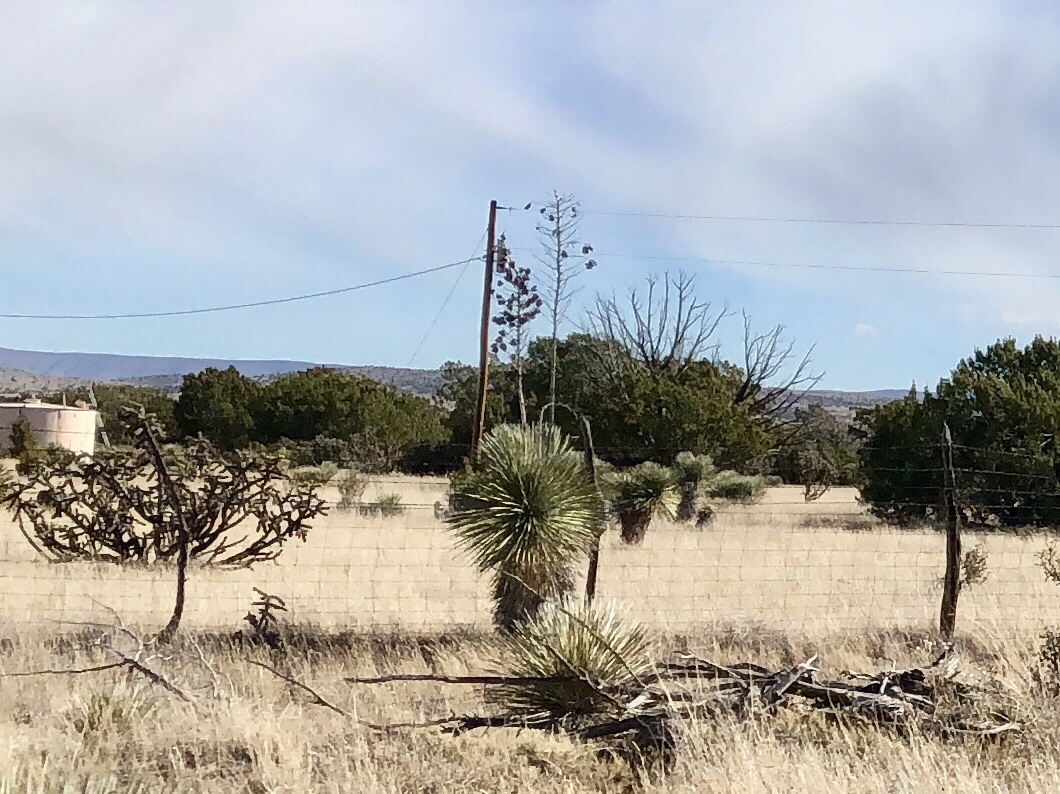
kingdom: Plantae
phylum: Tracheophyta
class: Liliopsida
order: Asparagales
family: Asparagaceae
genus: Yucca
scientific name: Yucca elata
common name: Palmella
